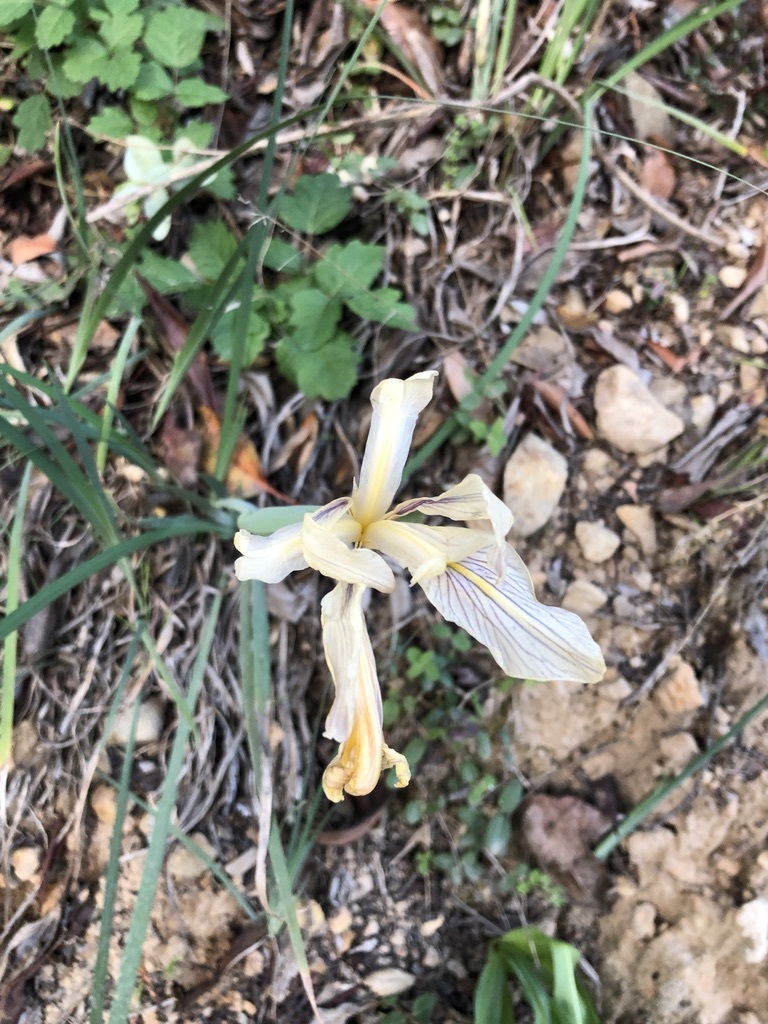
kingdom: Plantae
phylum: Tracheophyta
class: Liliopsida
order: Asparagales
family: Iridaceae
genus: Iris
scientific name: Iris fernaldii
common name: Fernald's iris
